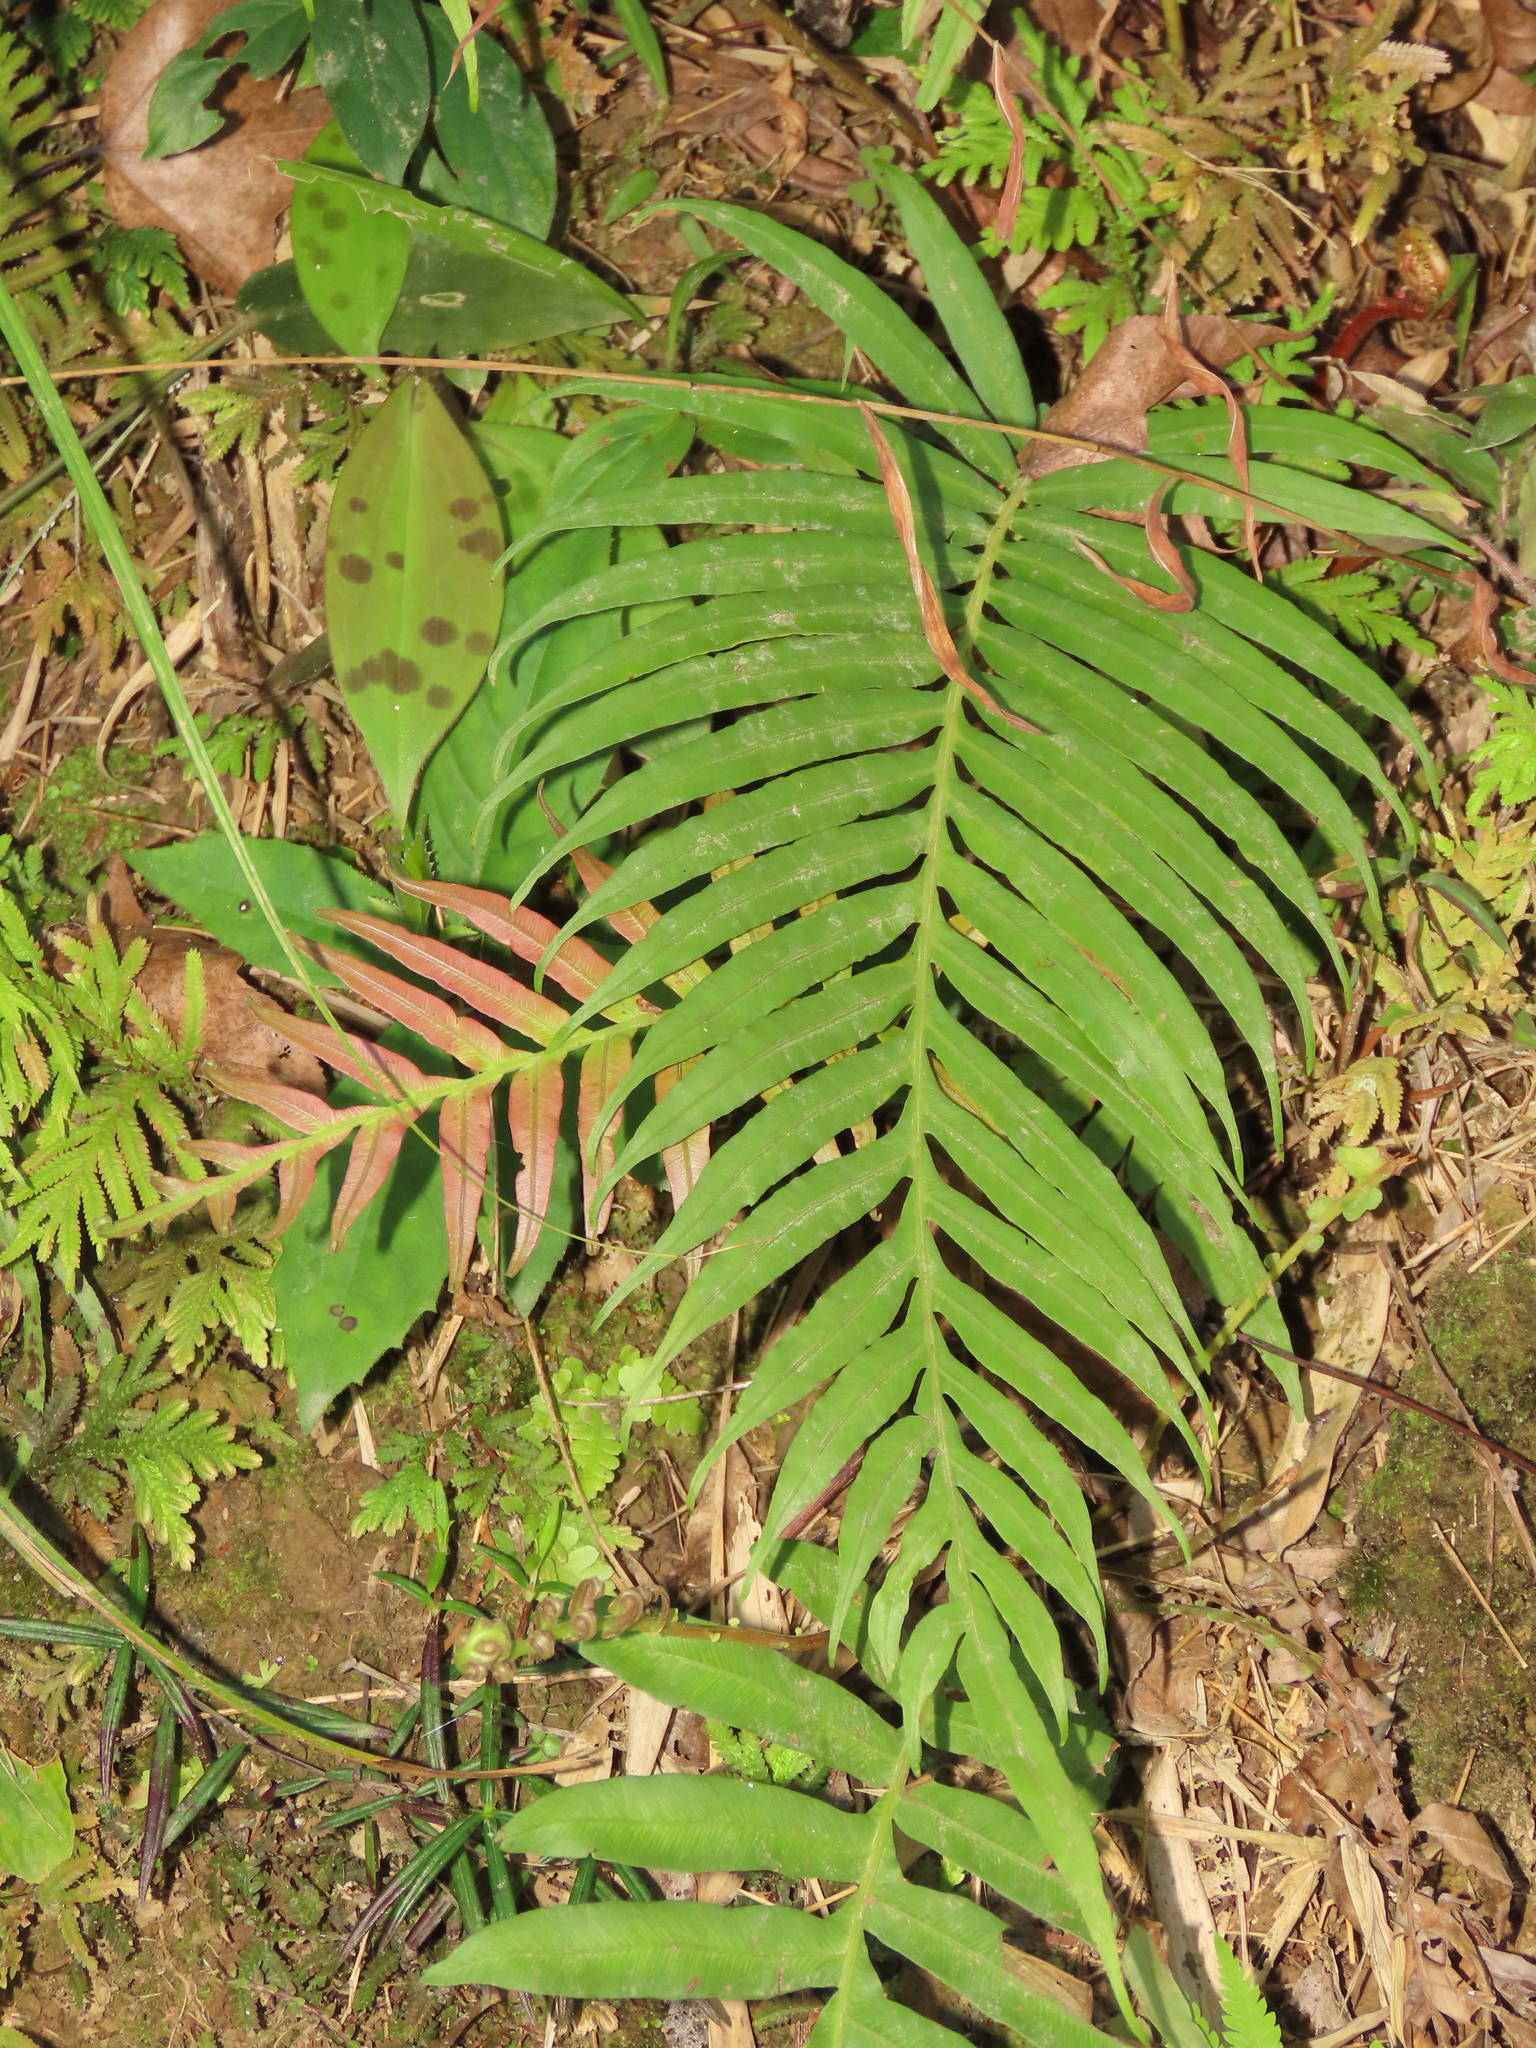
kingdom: Plantae
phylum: Tracheophyta
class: Polypodiopsida
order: Polypodiales
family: Blechnaceae
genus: Blechnopsis
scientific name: Blechnopsis orientalis
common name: Oriental blechnum
